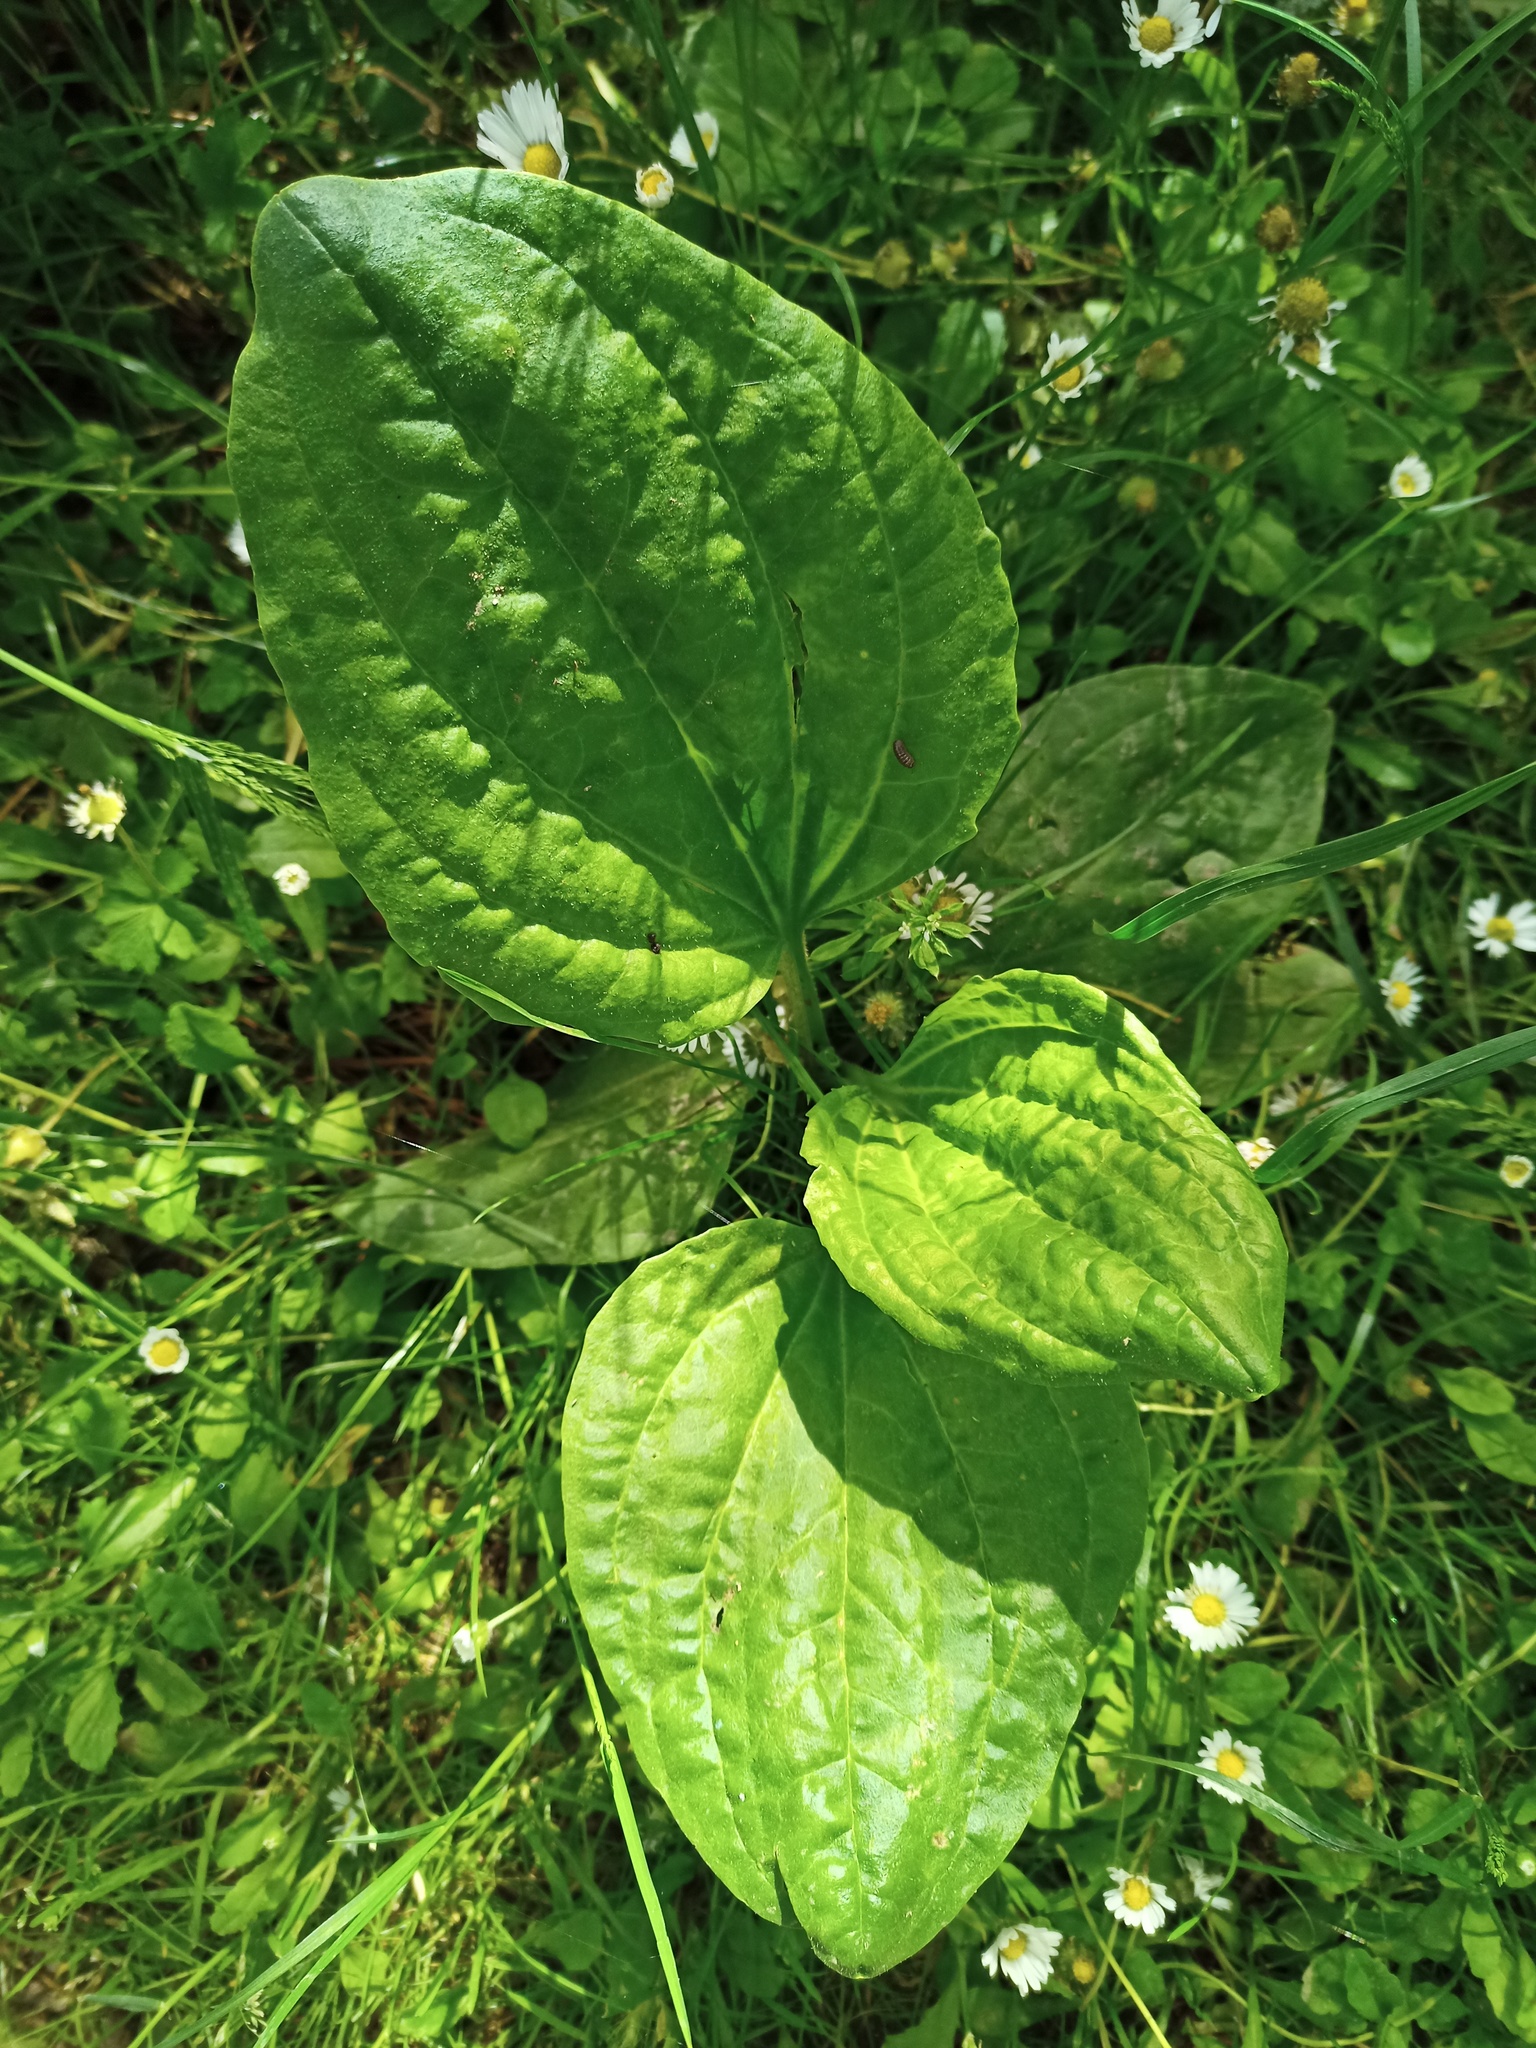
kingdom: Plantae
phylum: Tracheophyta
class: Magnoliopsida
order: Lamiales
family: Plantaginaceae
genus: Plantago
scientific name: Plantago major
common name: Common plantain
